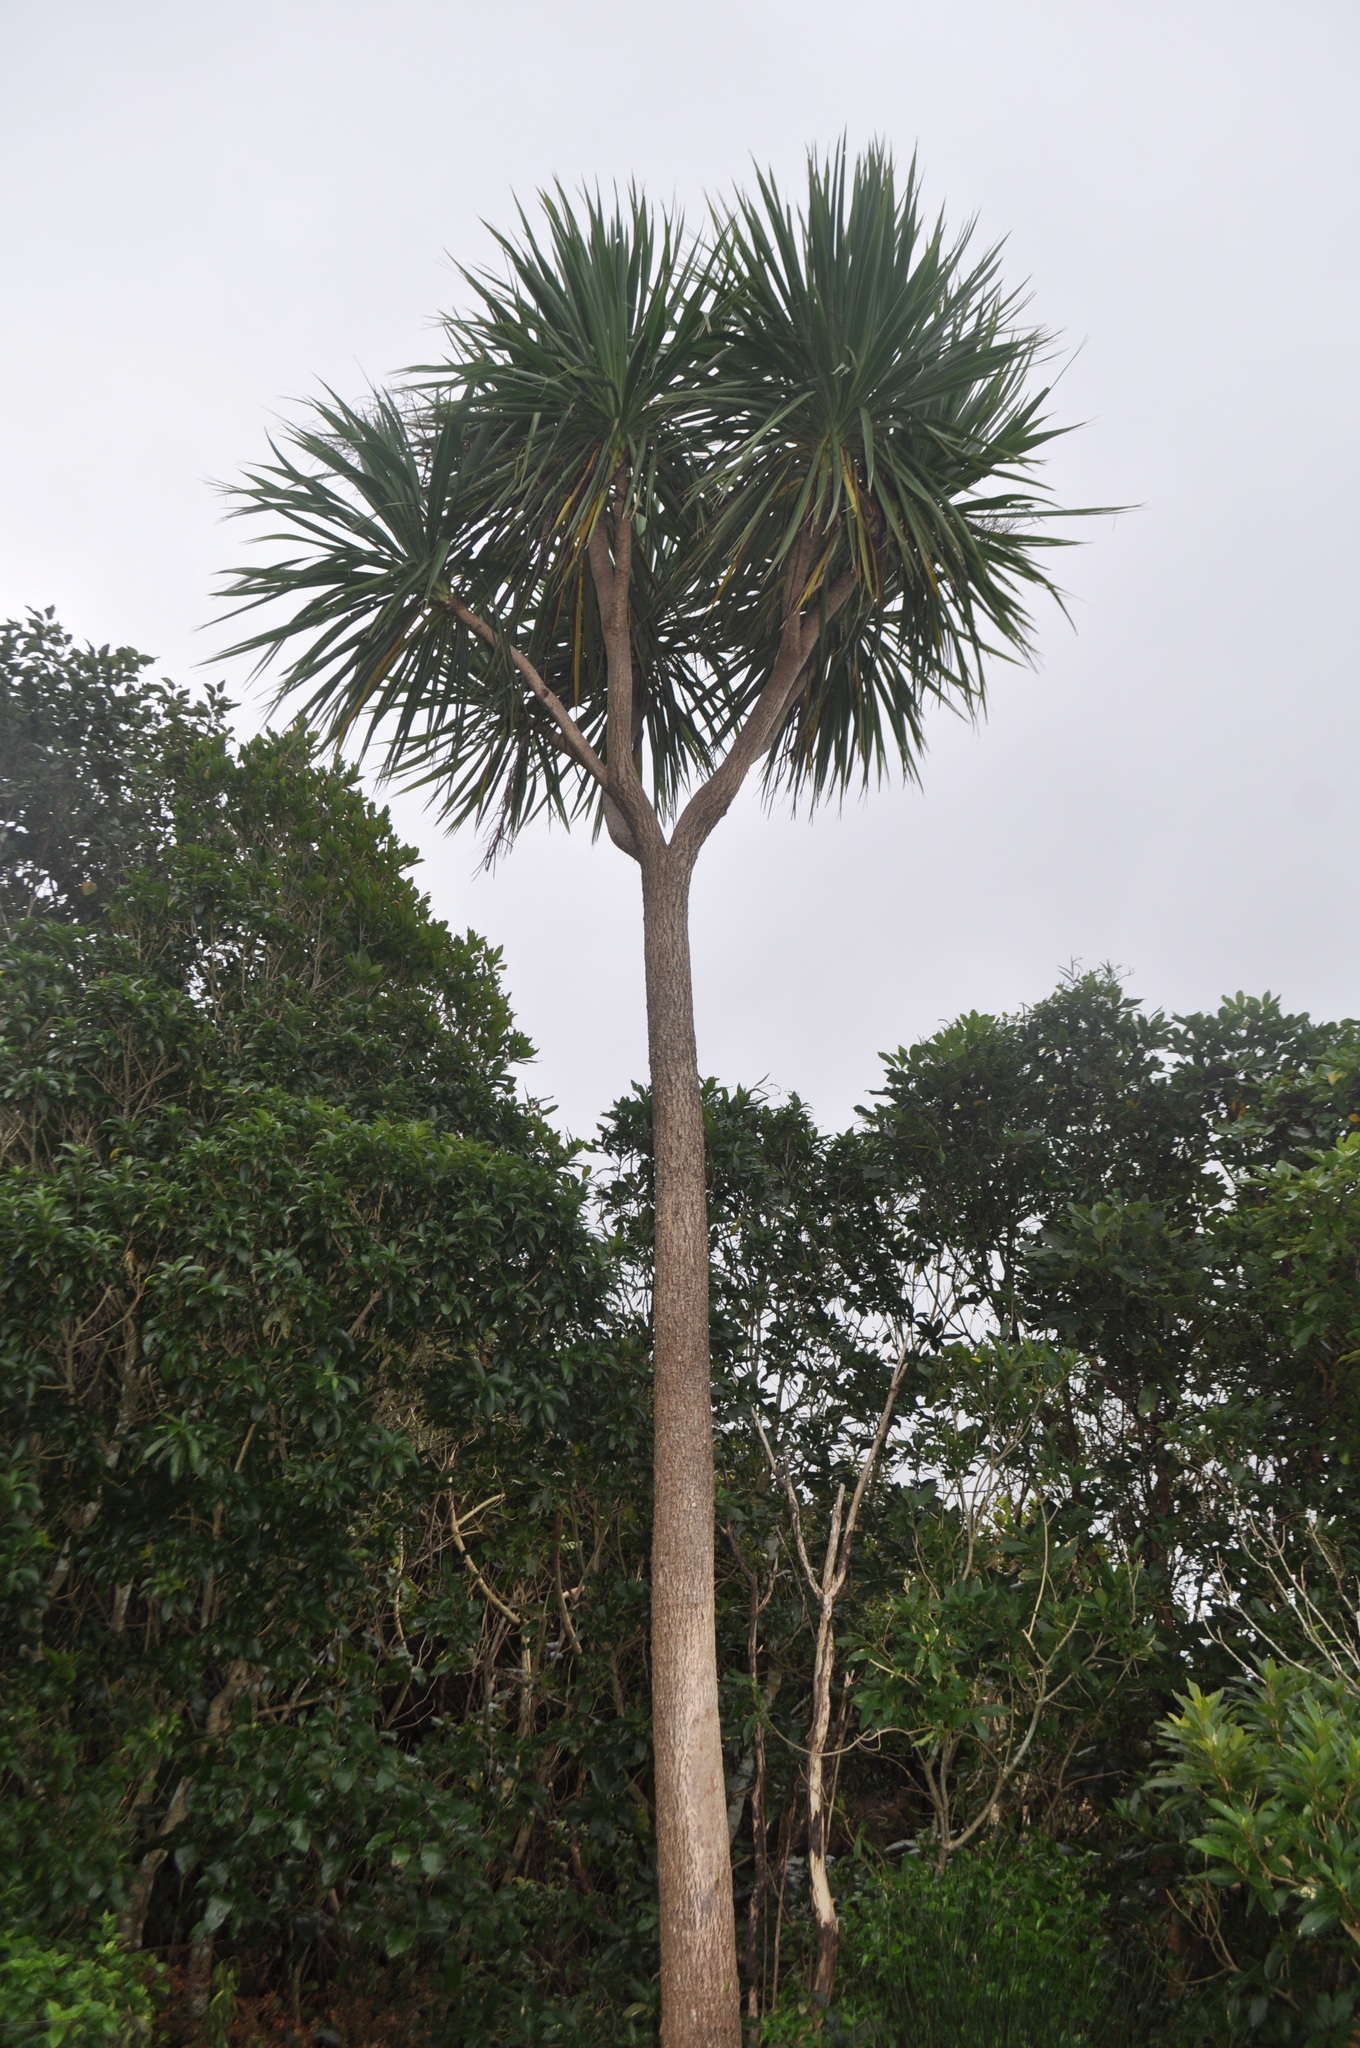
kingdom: Plantae
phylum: Tracheophyta
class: Liliopsida
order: Asparagales
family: Asparagaceae
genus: Cordyline
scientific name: Cordyline australis
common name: Cabbage-palm
